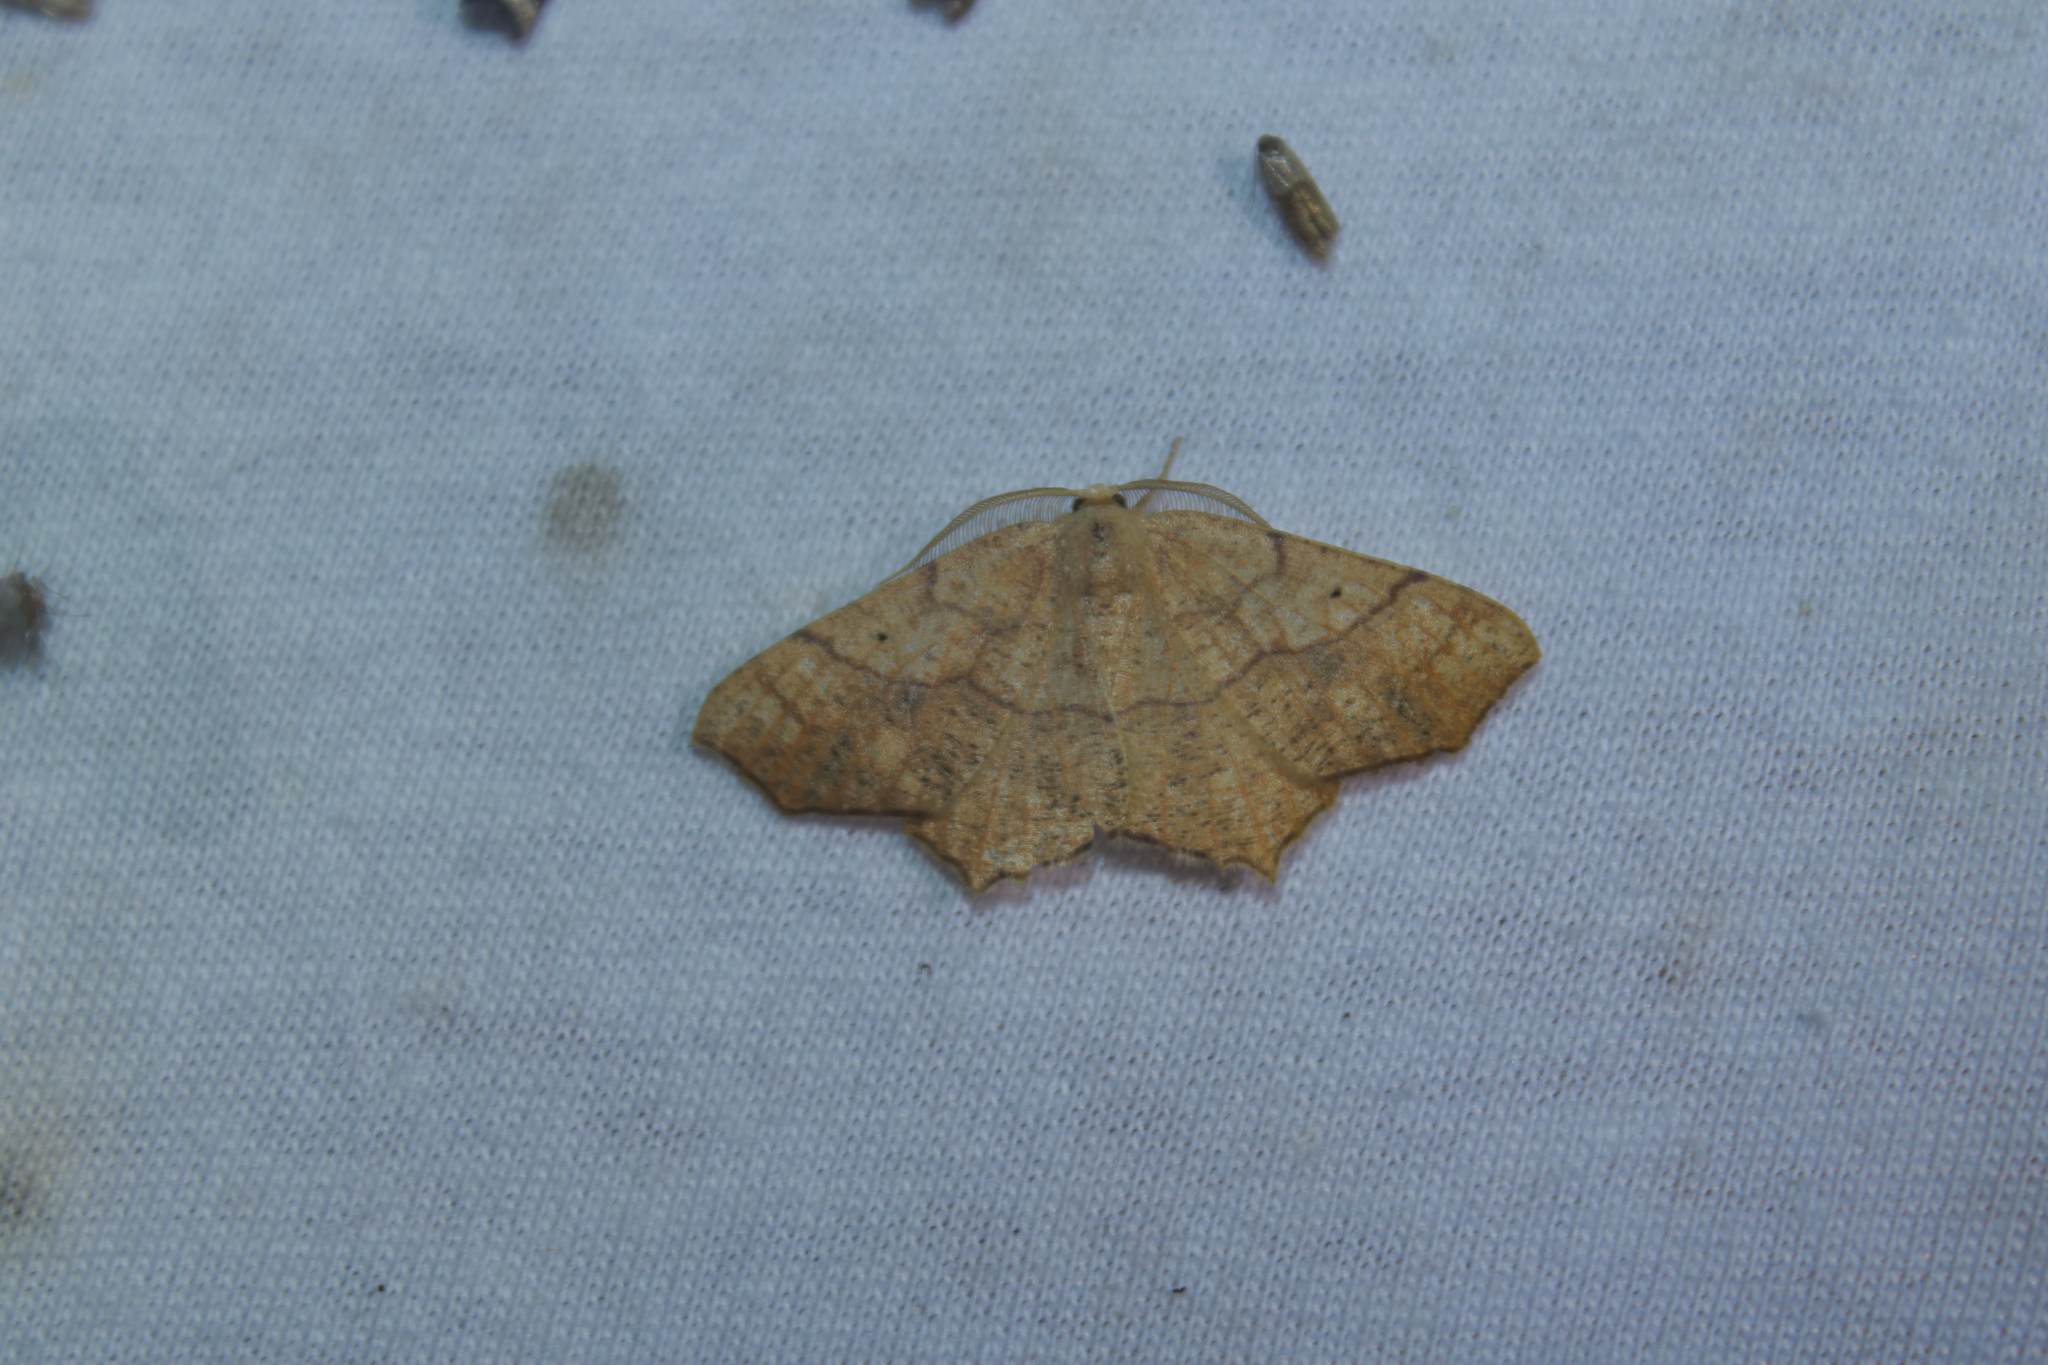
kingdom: Animalia
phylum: Arthropoda
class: Insecta
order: Lepidoptera
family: Geometridae
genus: Besma
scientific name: Besma quercivoraria
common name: Oak besma
